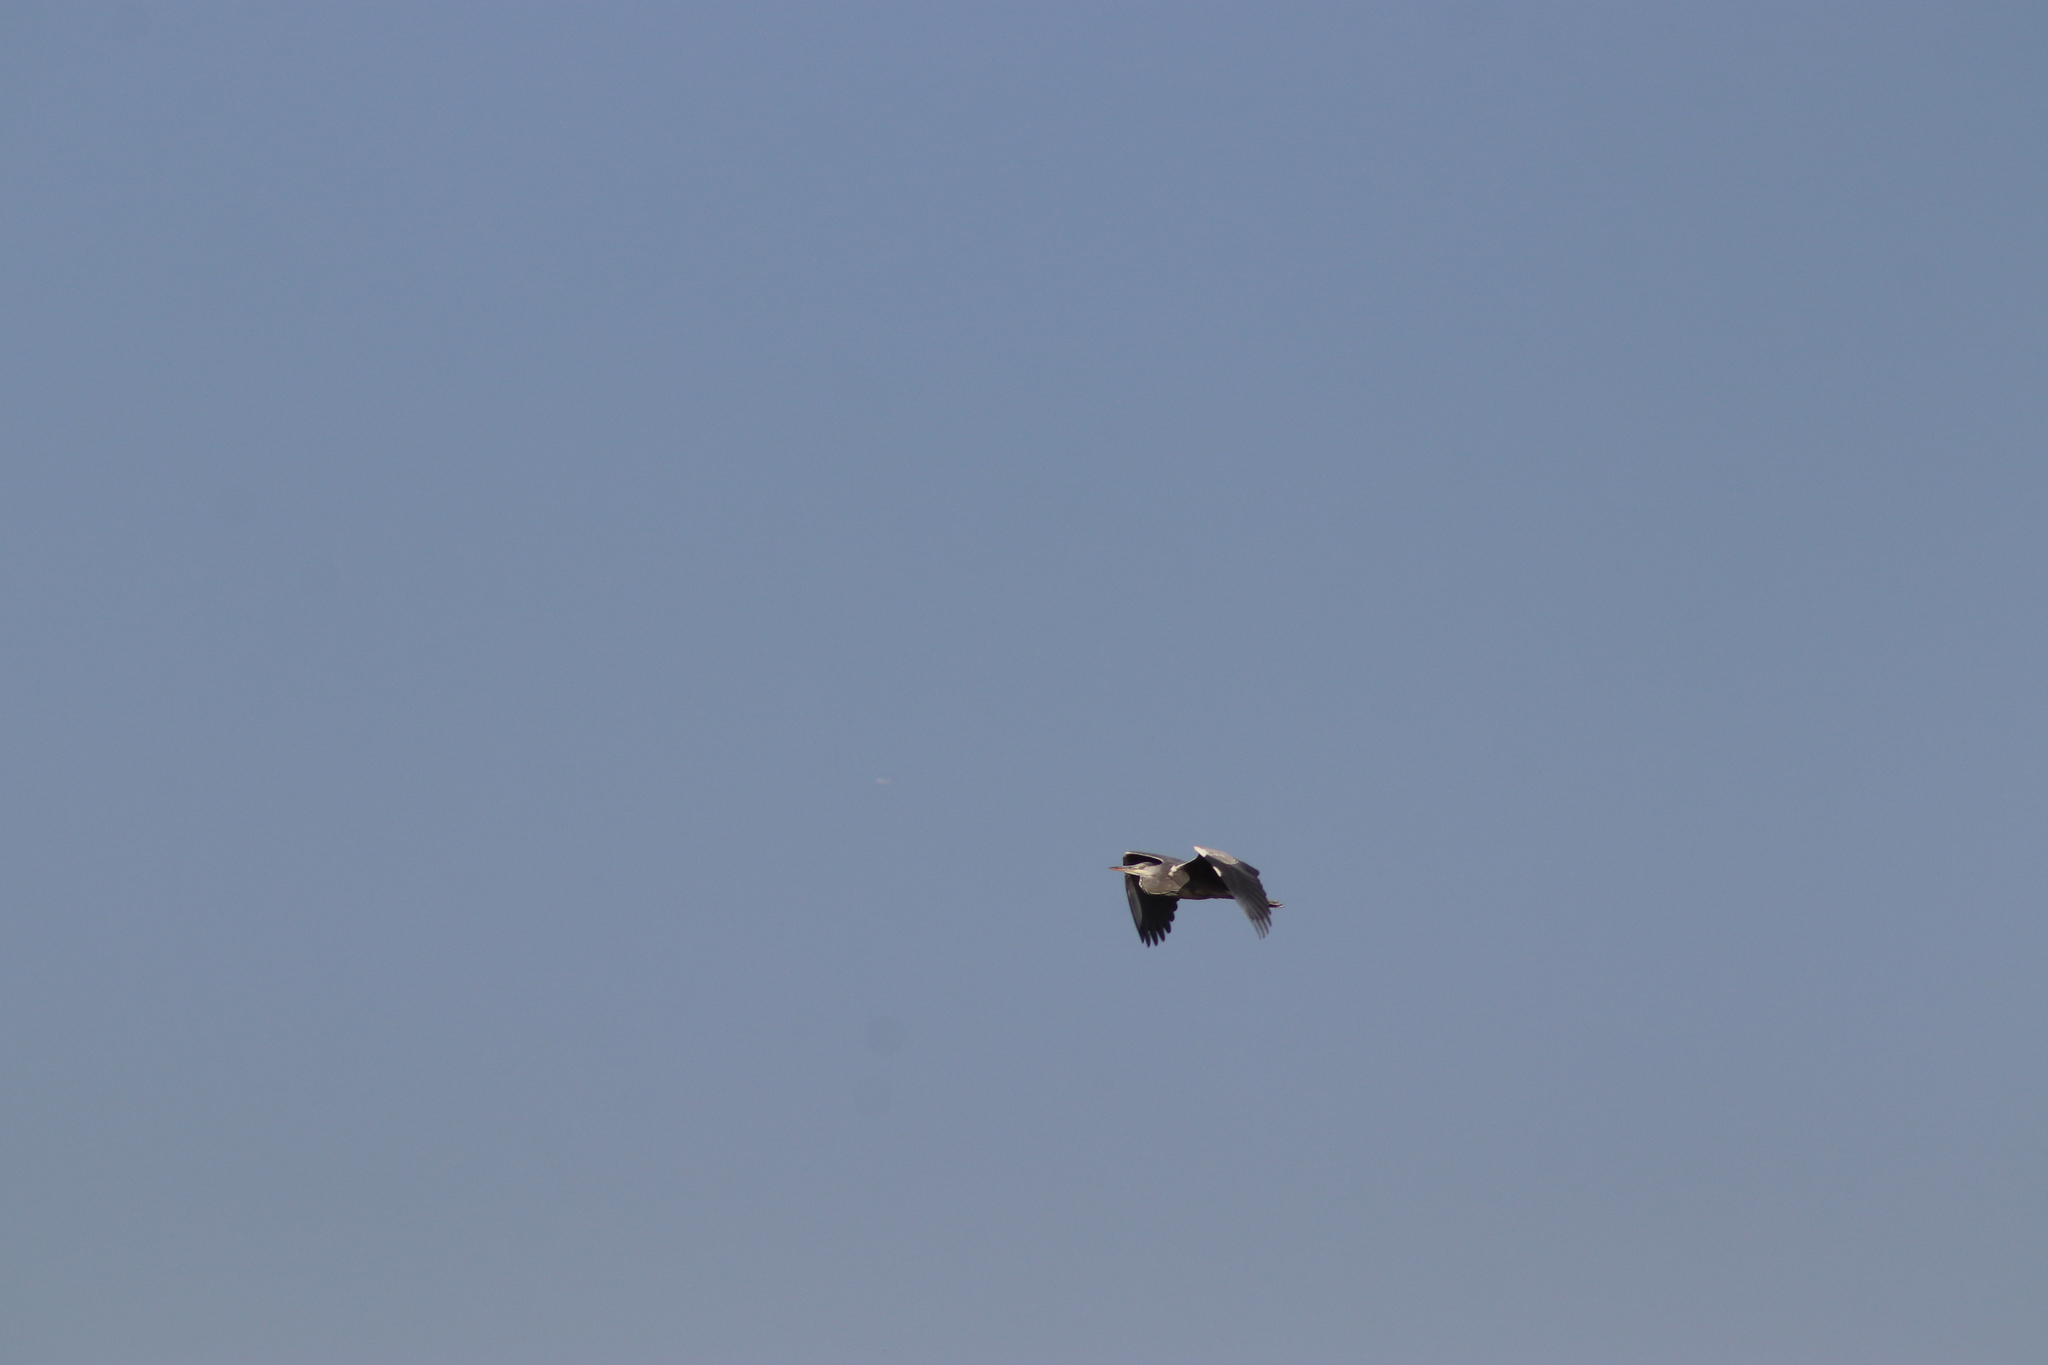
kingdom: Animalia
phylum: Chordata
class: Aves
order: Pelecaniformes
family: Ardeidae
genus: Ardea
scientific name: Ardea cinerea
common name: Grey heron
